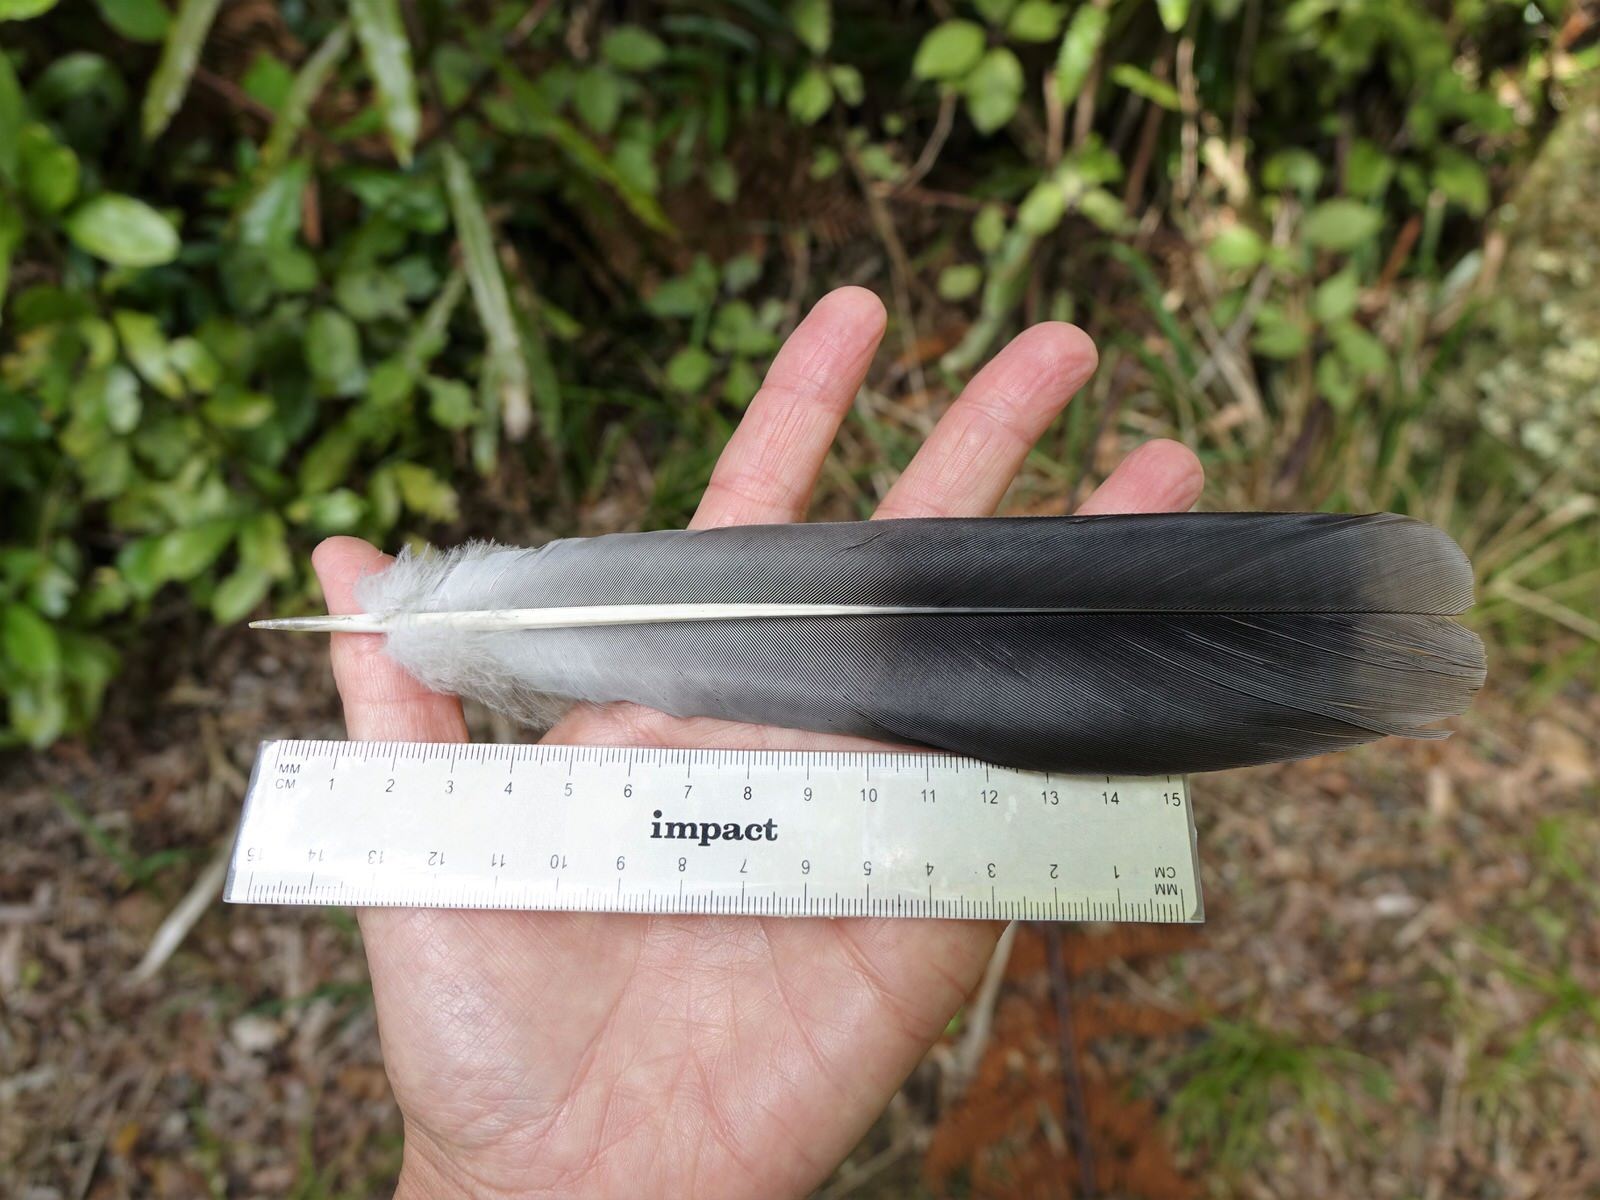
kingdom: Animalia
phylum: Chordata
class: Aves
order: Columbiformes
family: Columbidae
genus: Hemiphaga
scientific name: Hemiphaga novaeseelandiae
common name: New zealand pigeon
